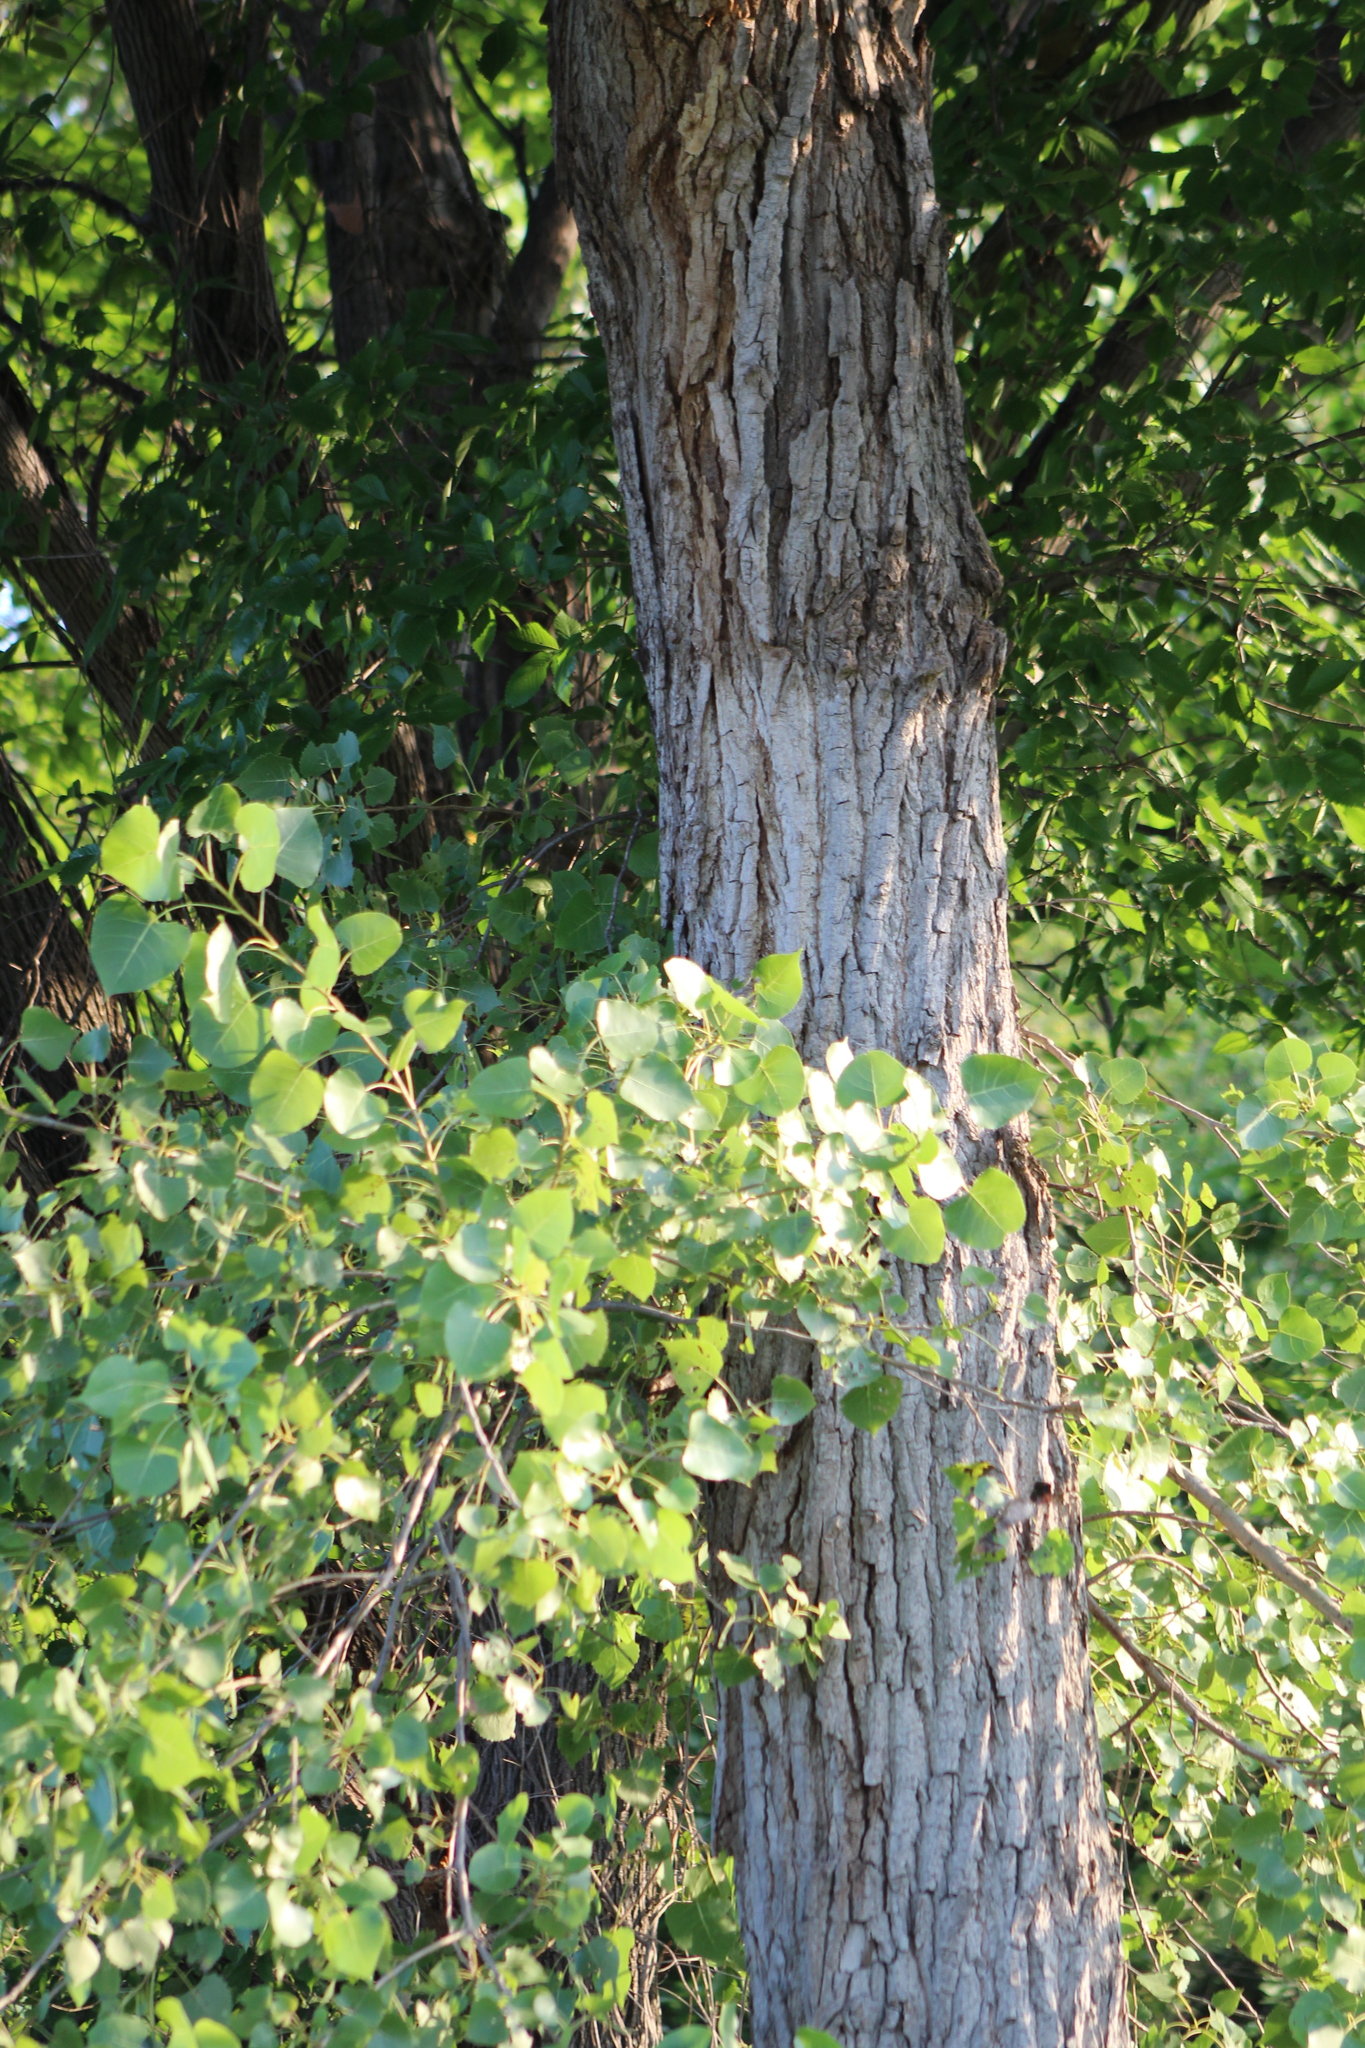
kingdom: Plantae
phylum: Tracheophyta
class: Magnoliopsida
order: Malpighiales
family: Salicaceae
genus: Populus
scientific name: Populus deltoides
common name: Eastern cottonwood
